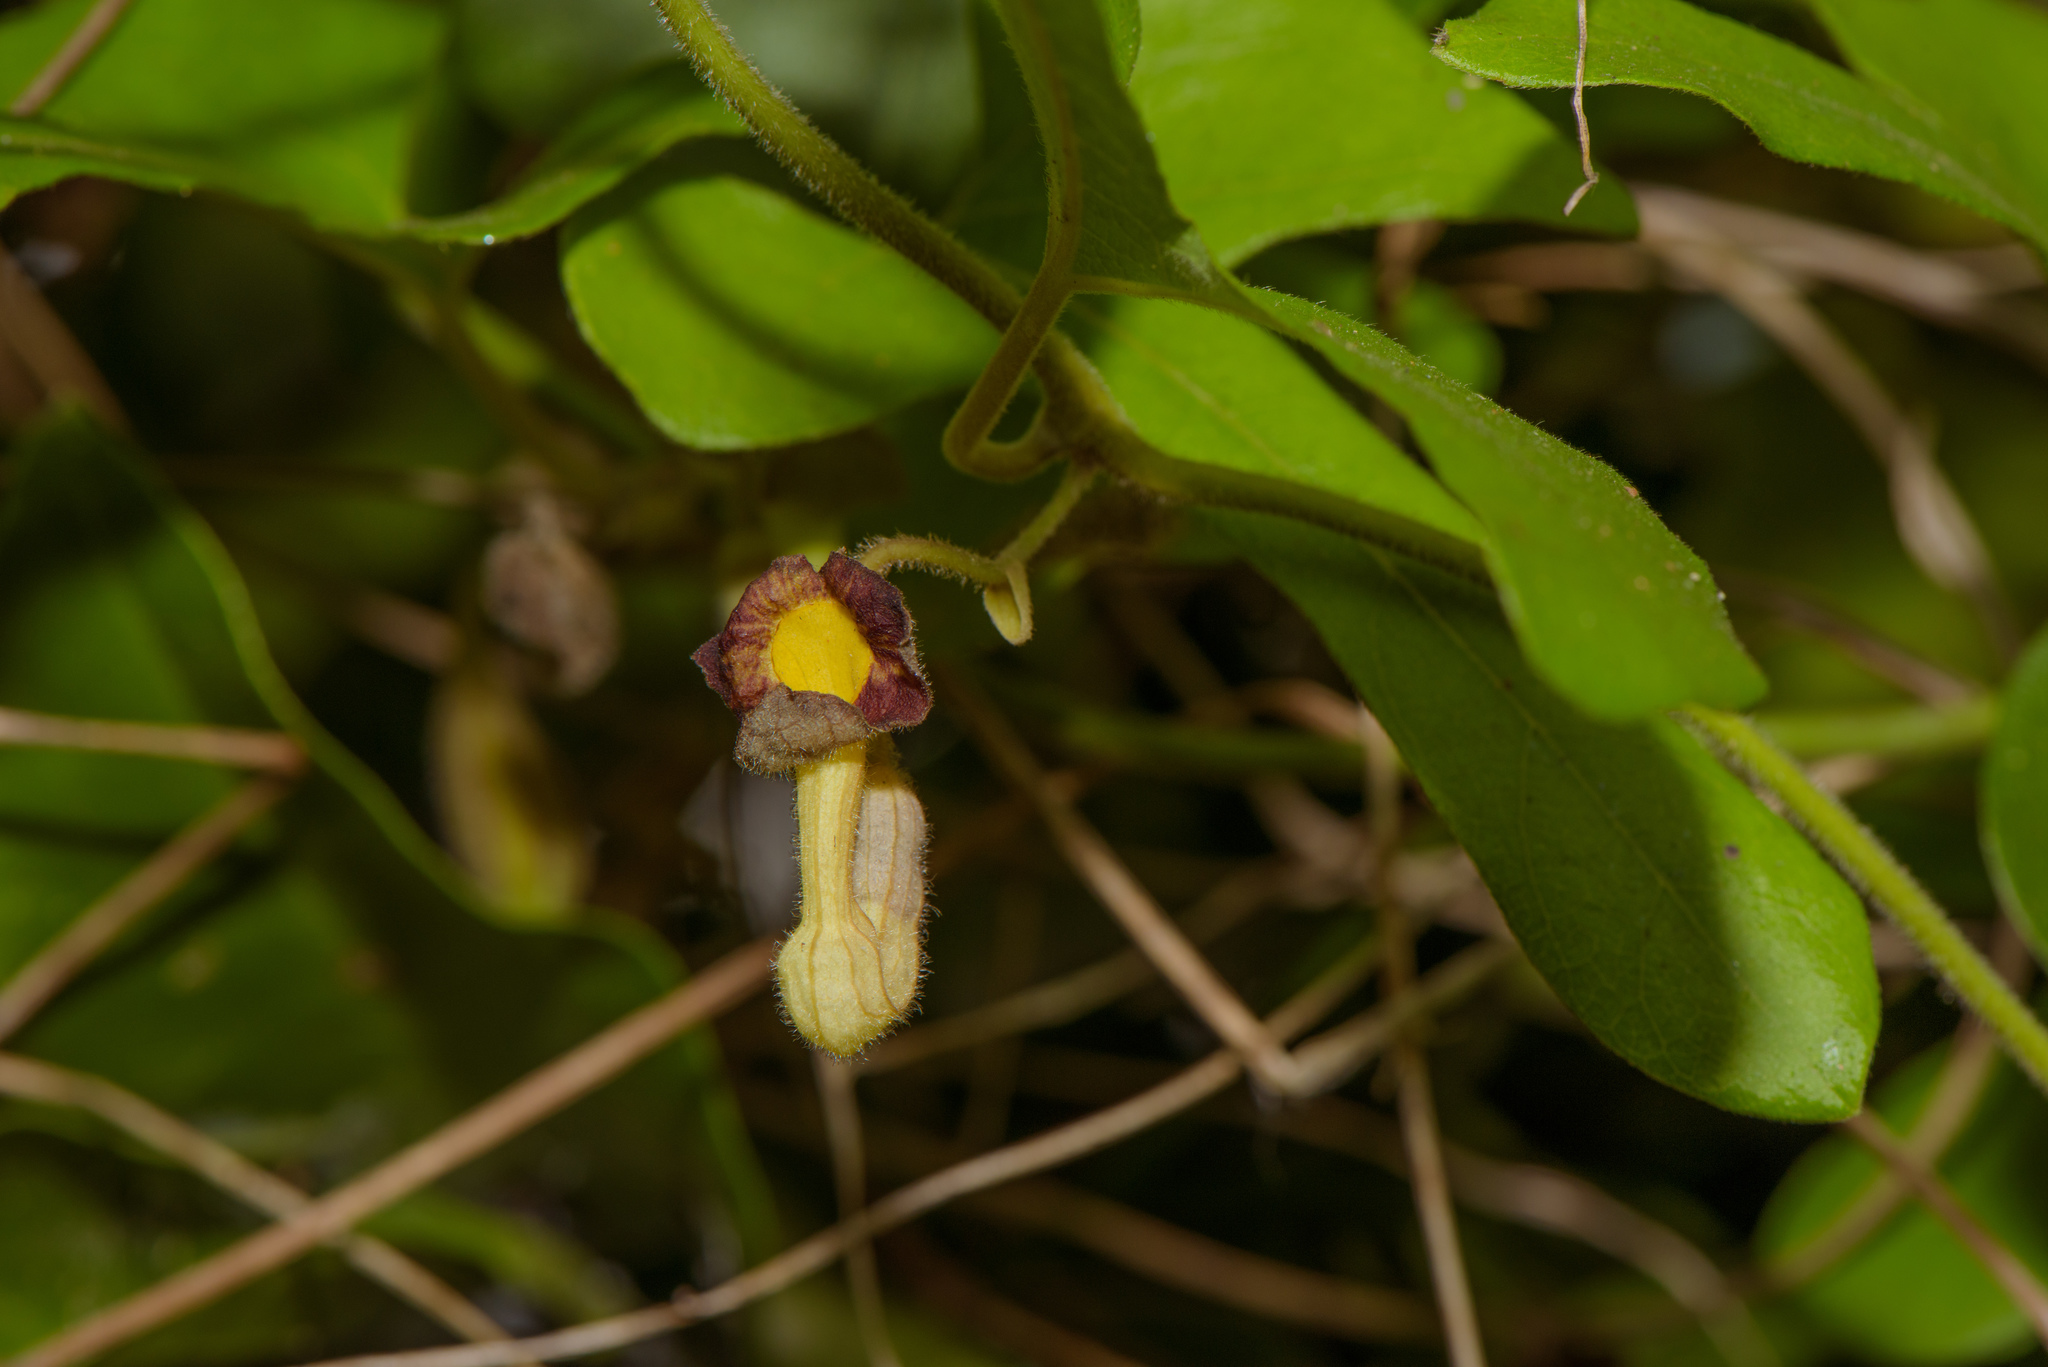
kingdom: Plantae
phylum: Tracheophyta
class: Magnoliopsida
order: Piperales
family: Aristolochiaceae
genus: Isotrema
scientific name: Isotrema shimadae
